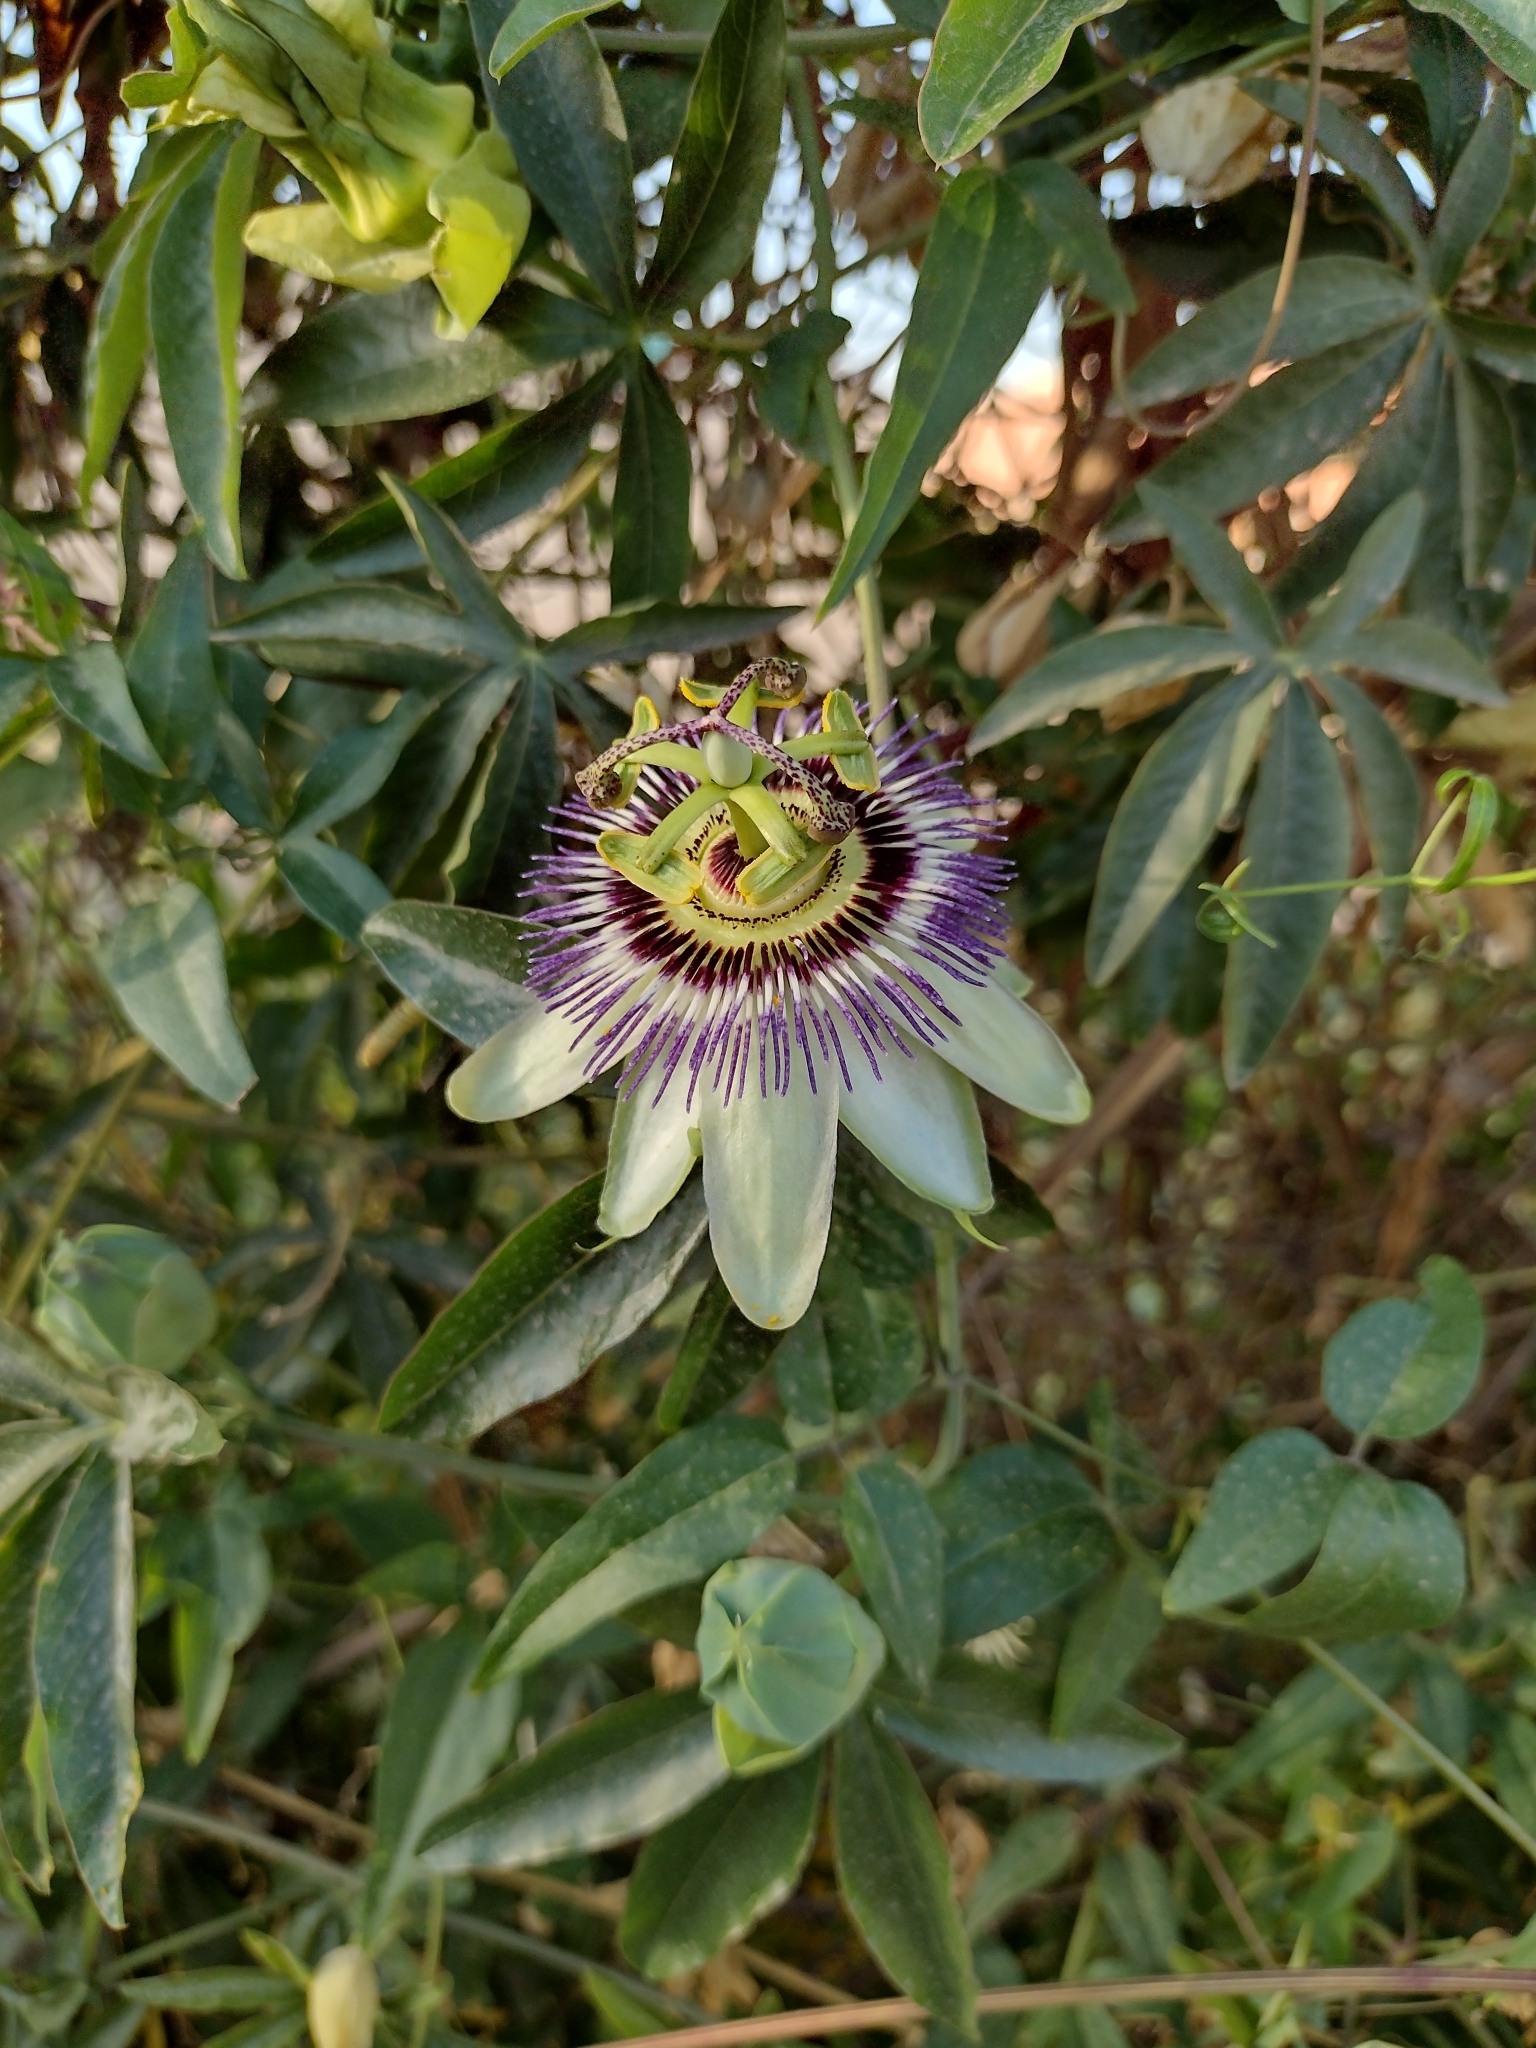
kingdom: Plantae
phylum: Tracheophyta
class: Magnoliopsida
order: Malpighiales
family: Passifloraceae
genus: Passiflora
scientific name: Passiflora caerulea
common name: Blue passionflower
